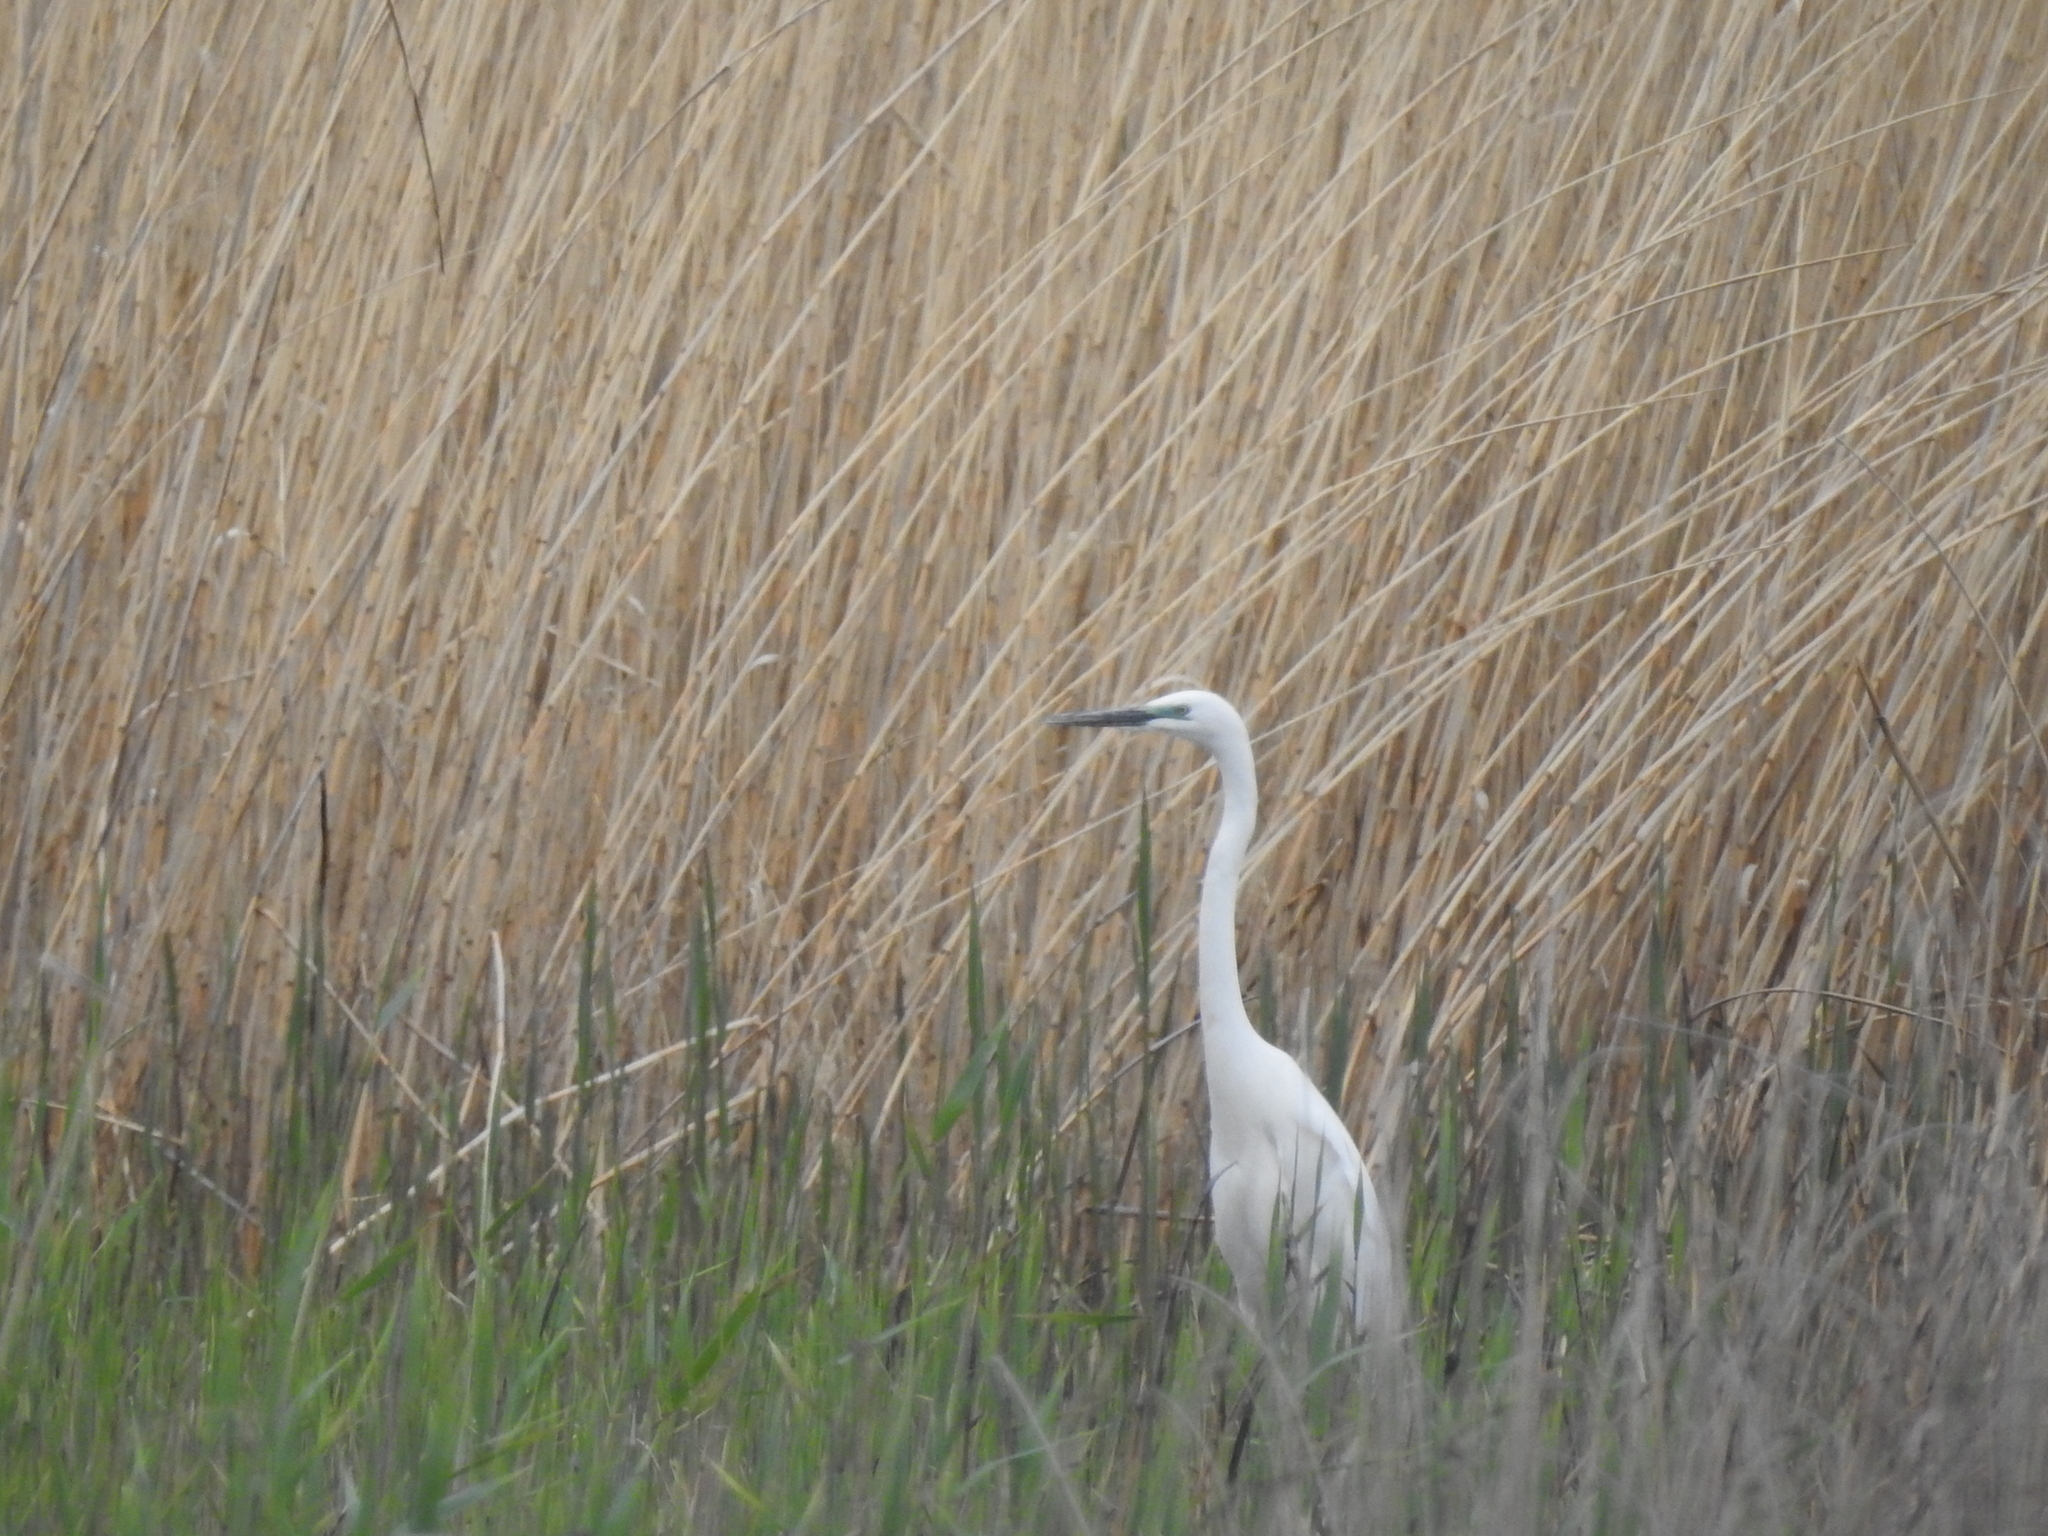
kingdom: Animalia
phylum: Chordata
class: Aves
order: Pelecaniformes
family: Ardeidae
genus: Ardea
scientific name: Ardea alba
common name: Great egret
